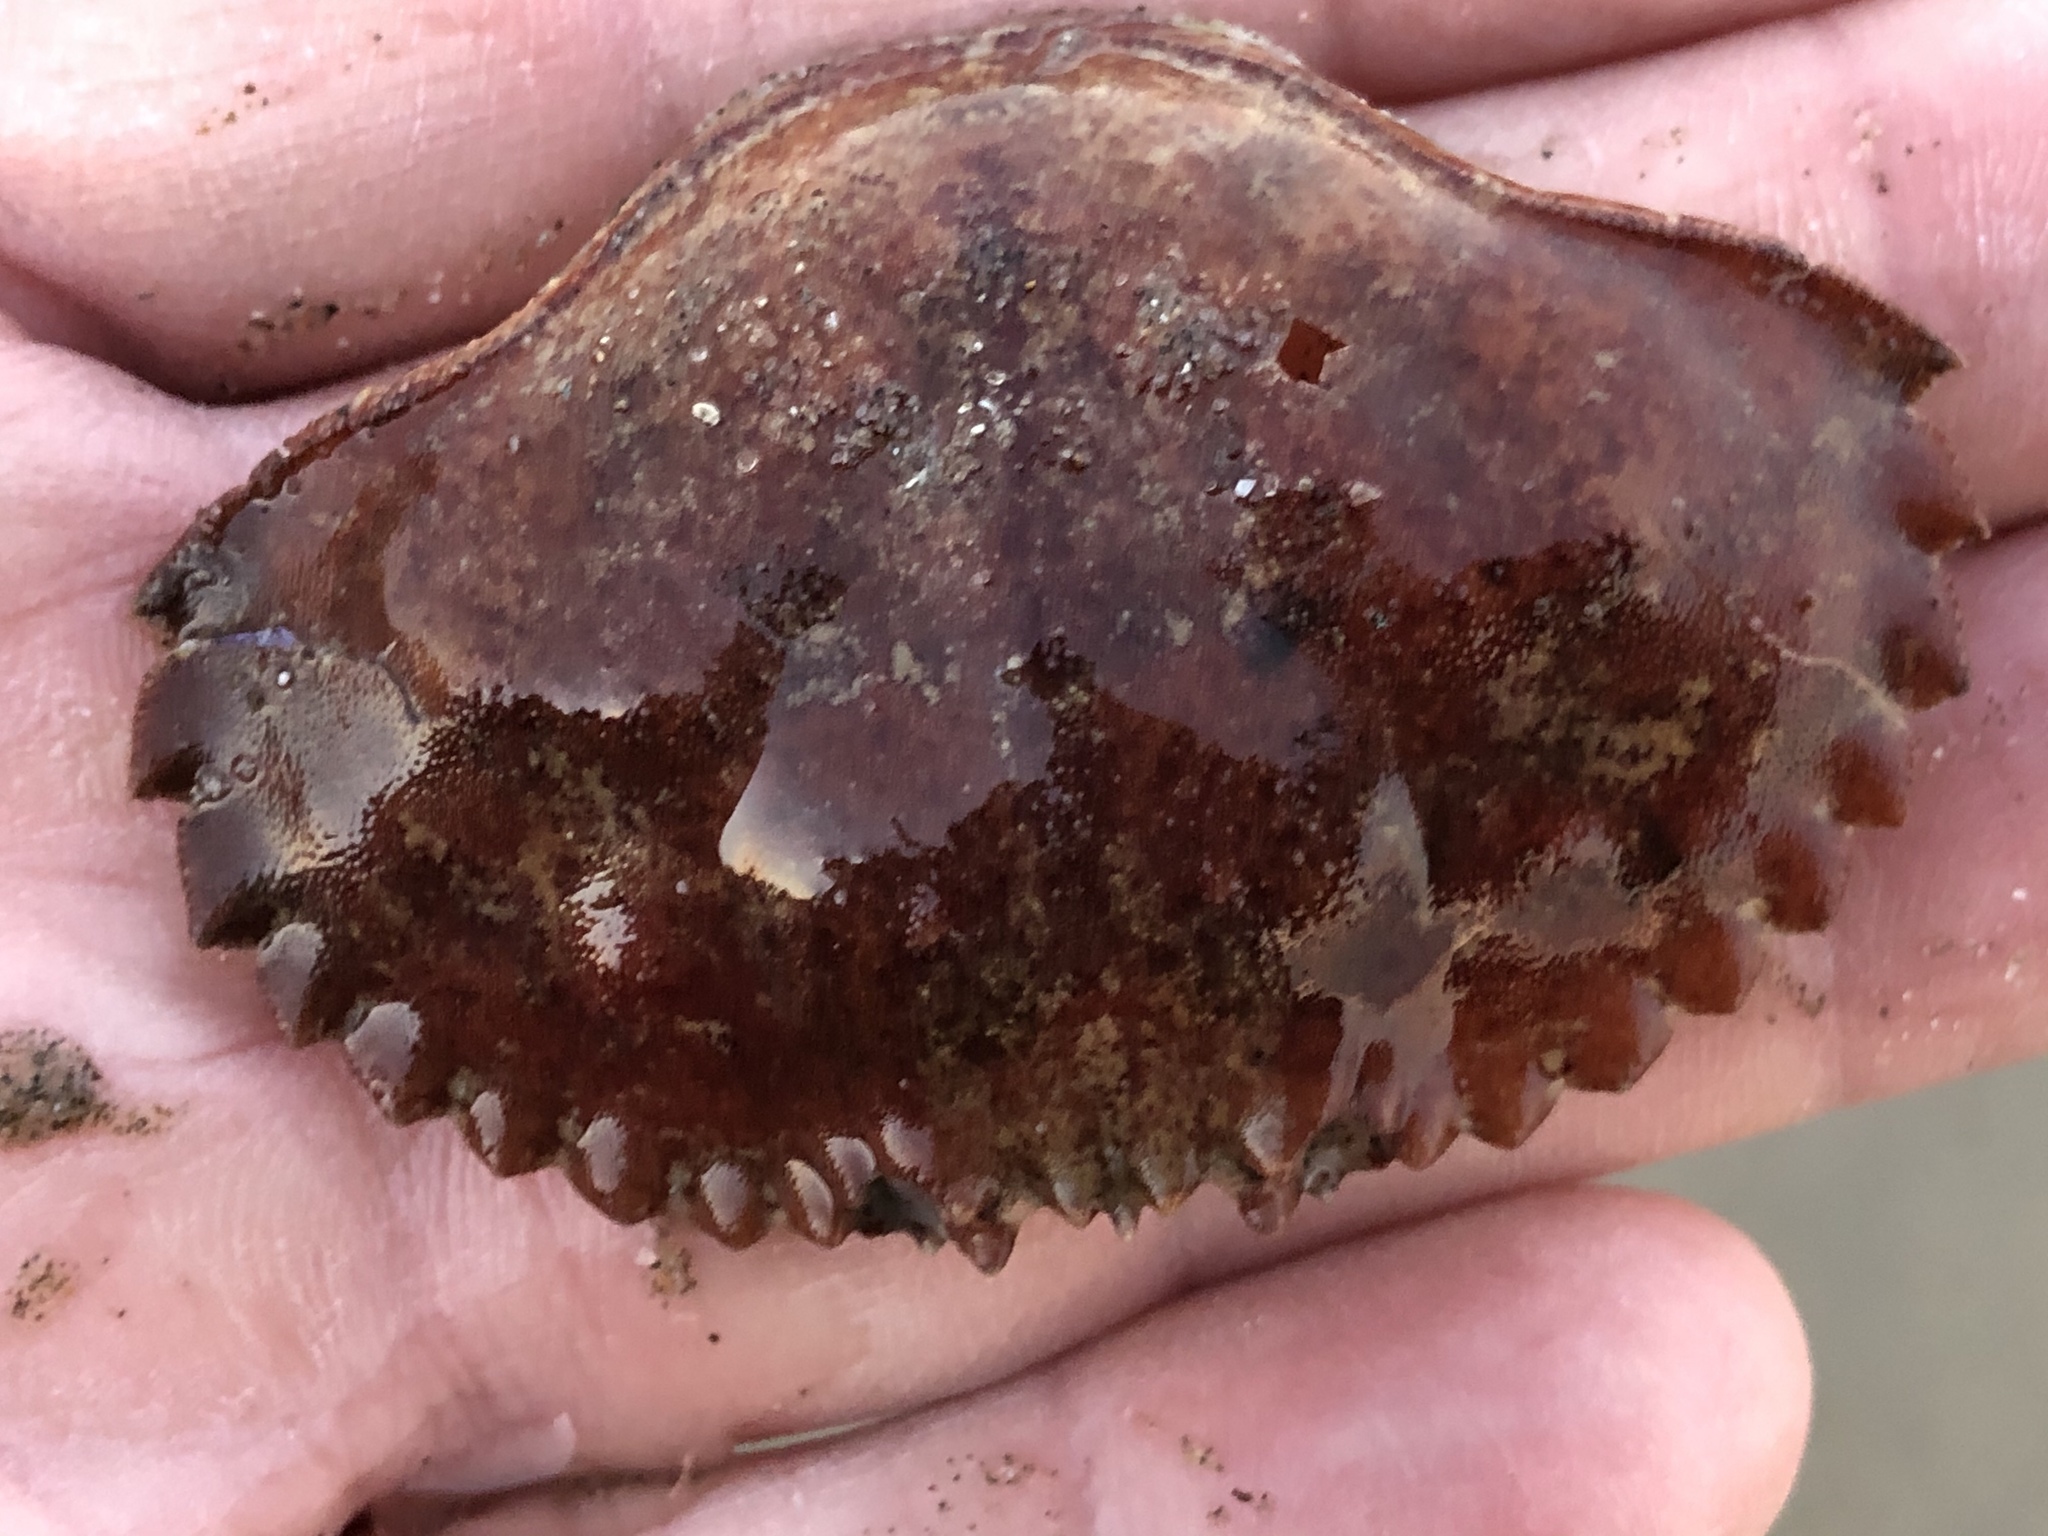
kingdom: Animalia
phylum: Arthropoda
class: Malacostraca
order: Decapoda
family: Cancridae
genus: Romaleon
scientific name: Romaleon antennarium
